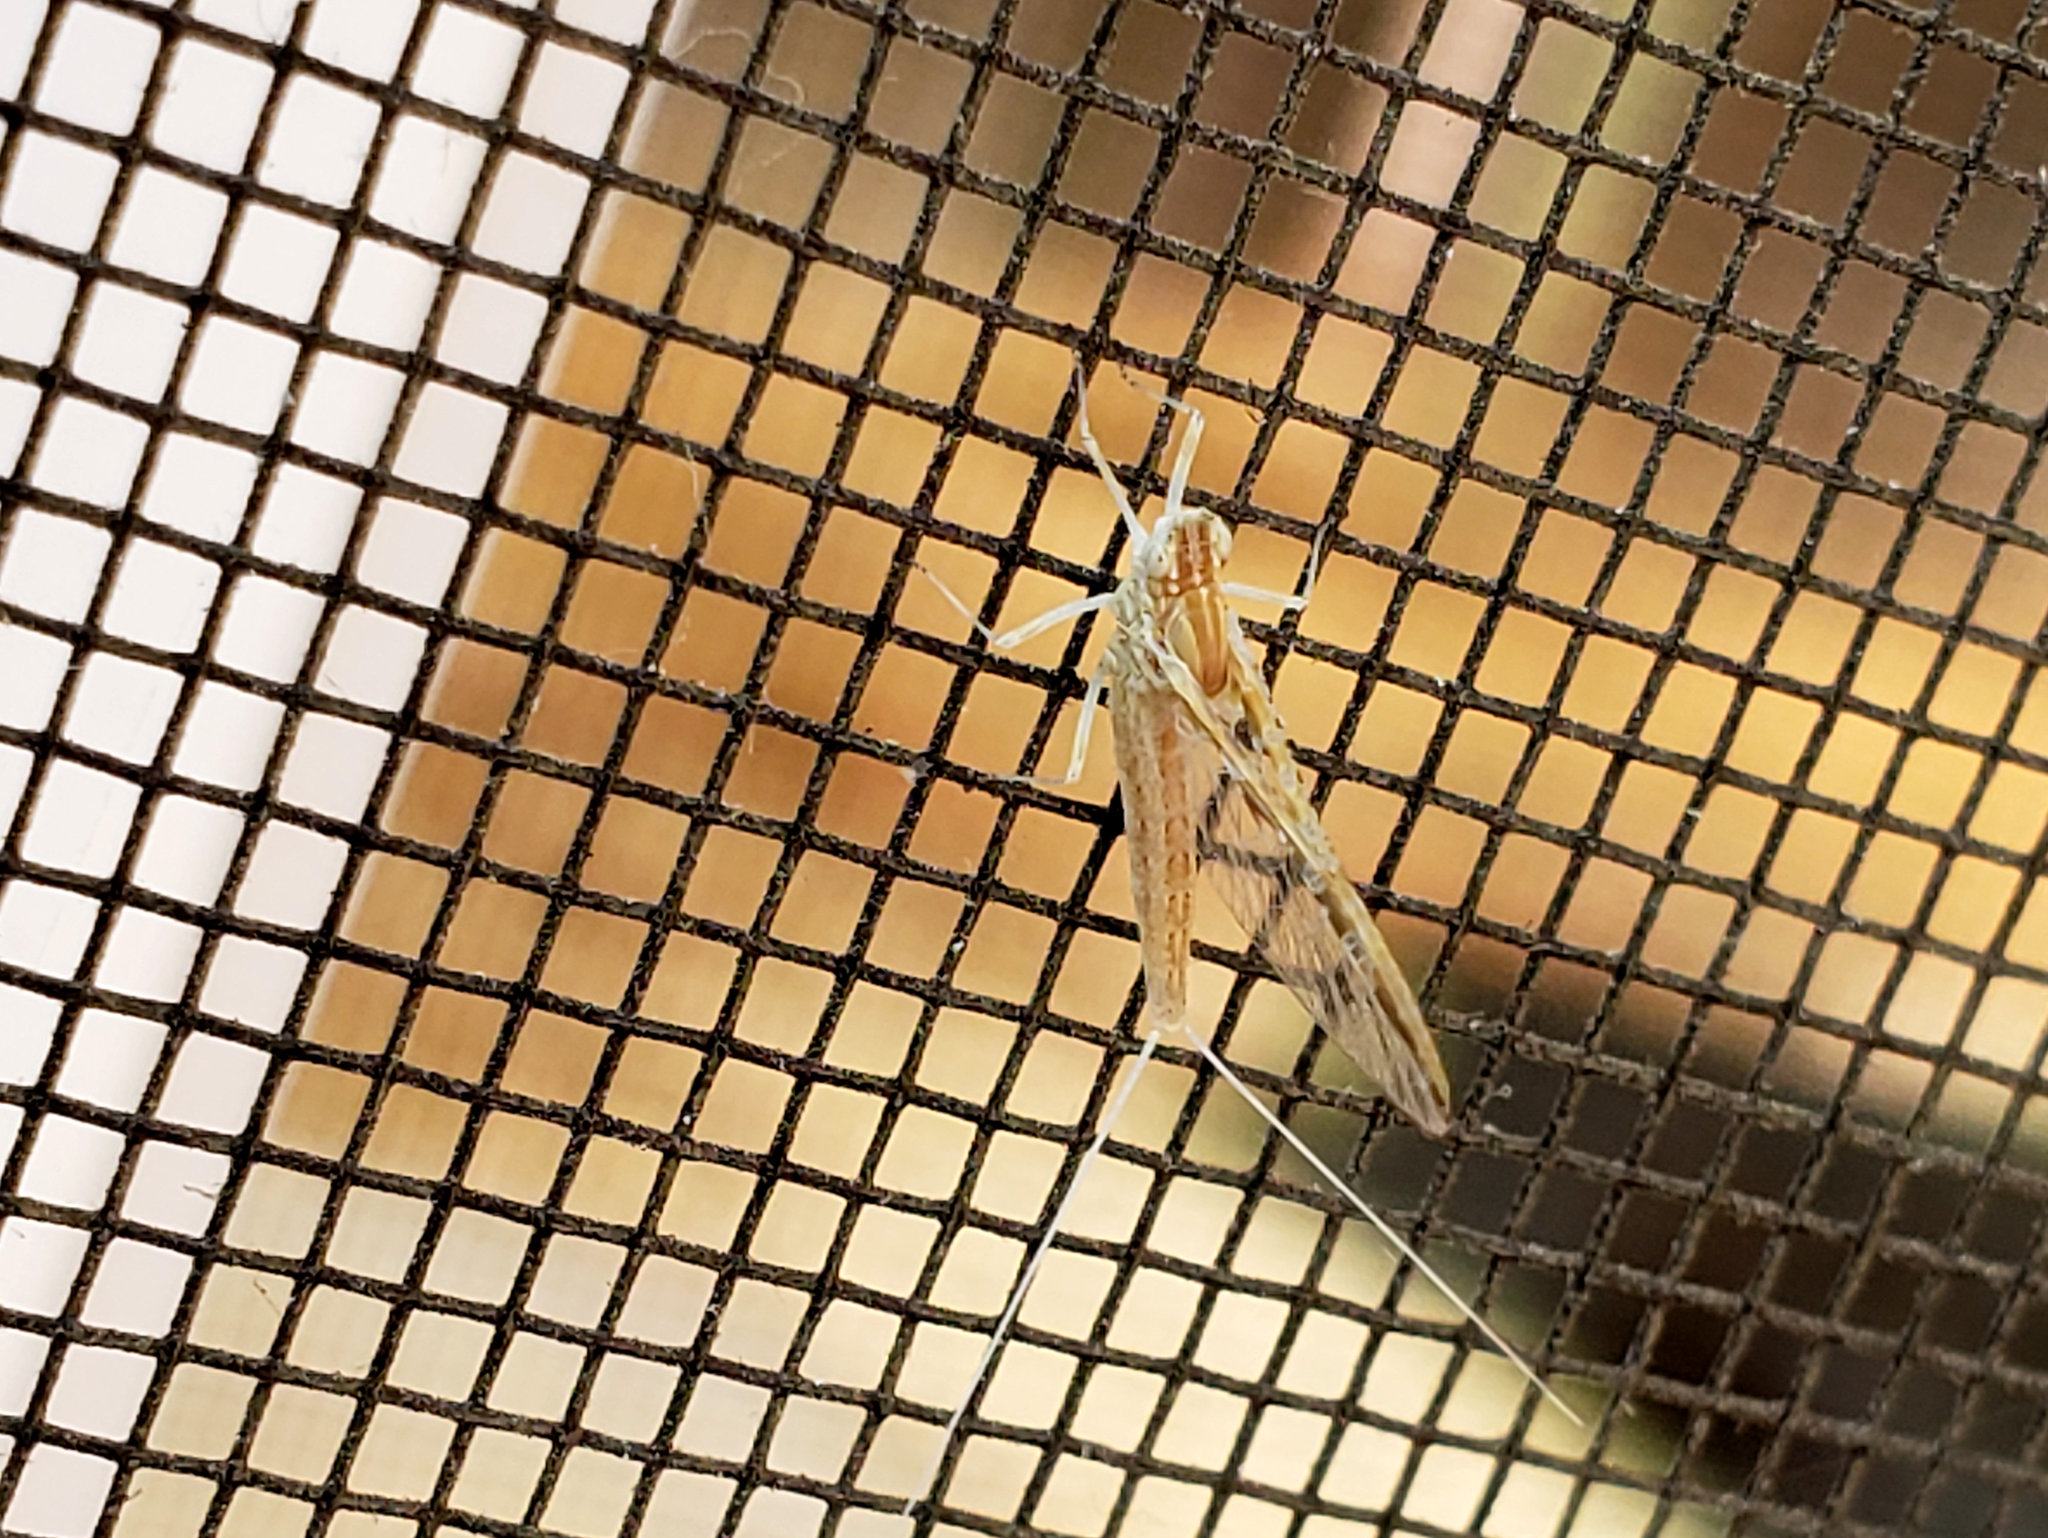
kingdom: Animalia
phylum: Arthropoda
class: Insecta
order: Ephemeroptera
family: Baetidae
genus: Callibaetis
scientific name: Callibaetis californicus
